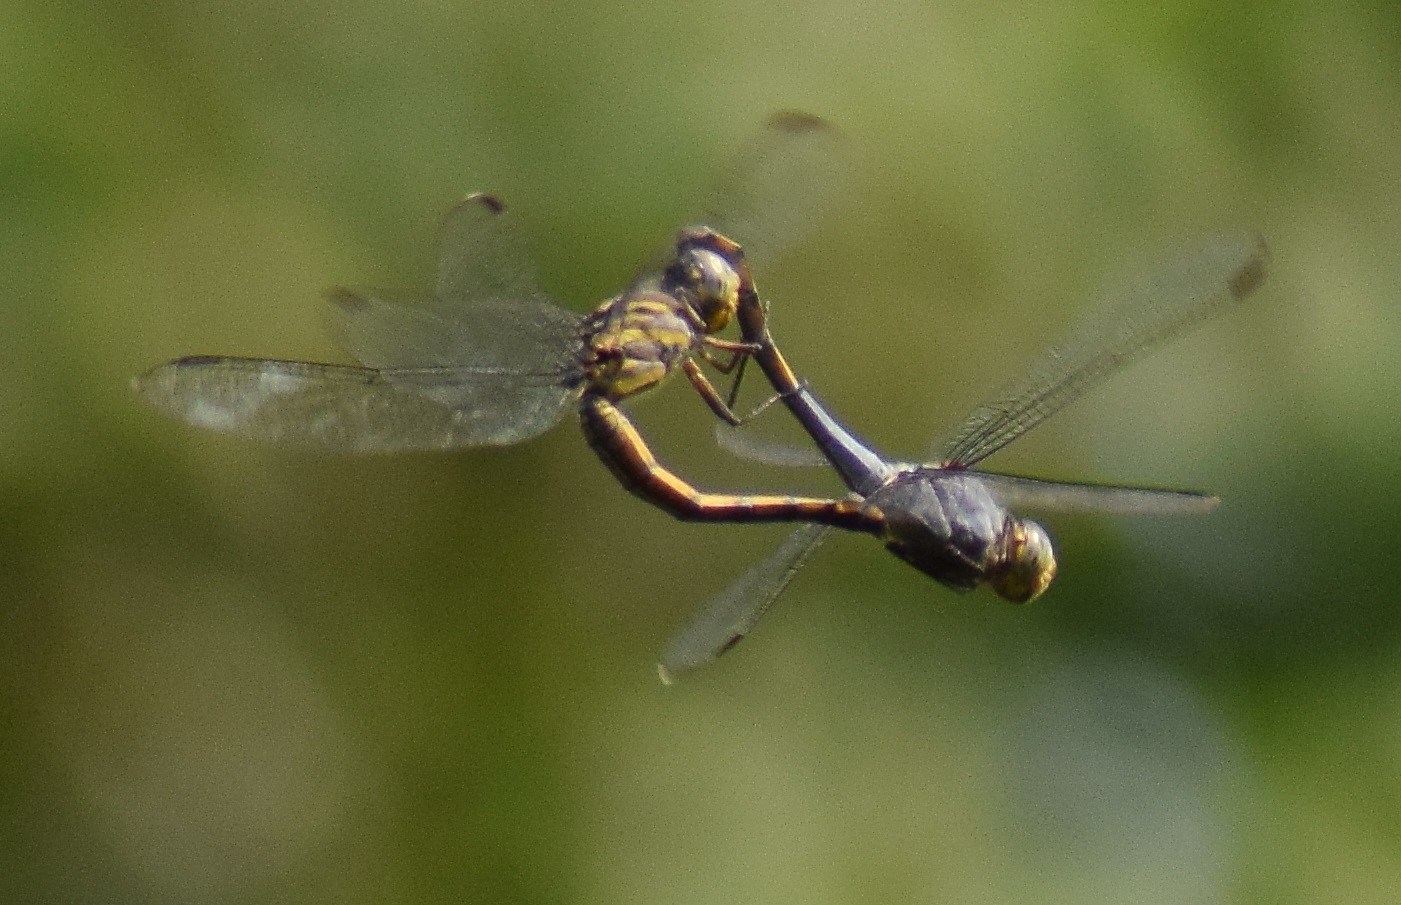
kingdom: Animalia
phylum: Arthropoda
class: Insecta
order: Odonata
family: Libellulidae
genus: Potamarcha
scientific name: Potamarcha congener
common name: Blue chaser
